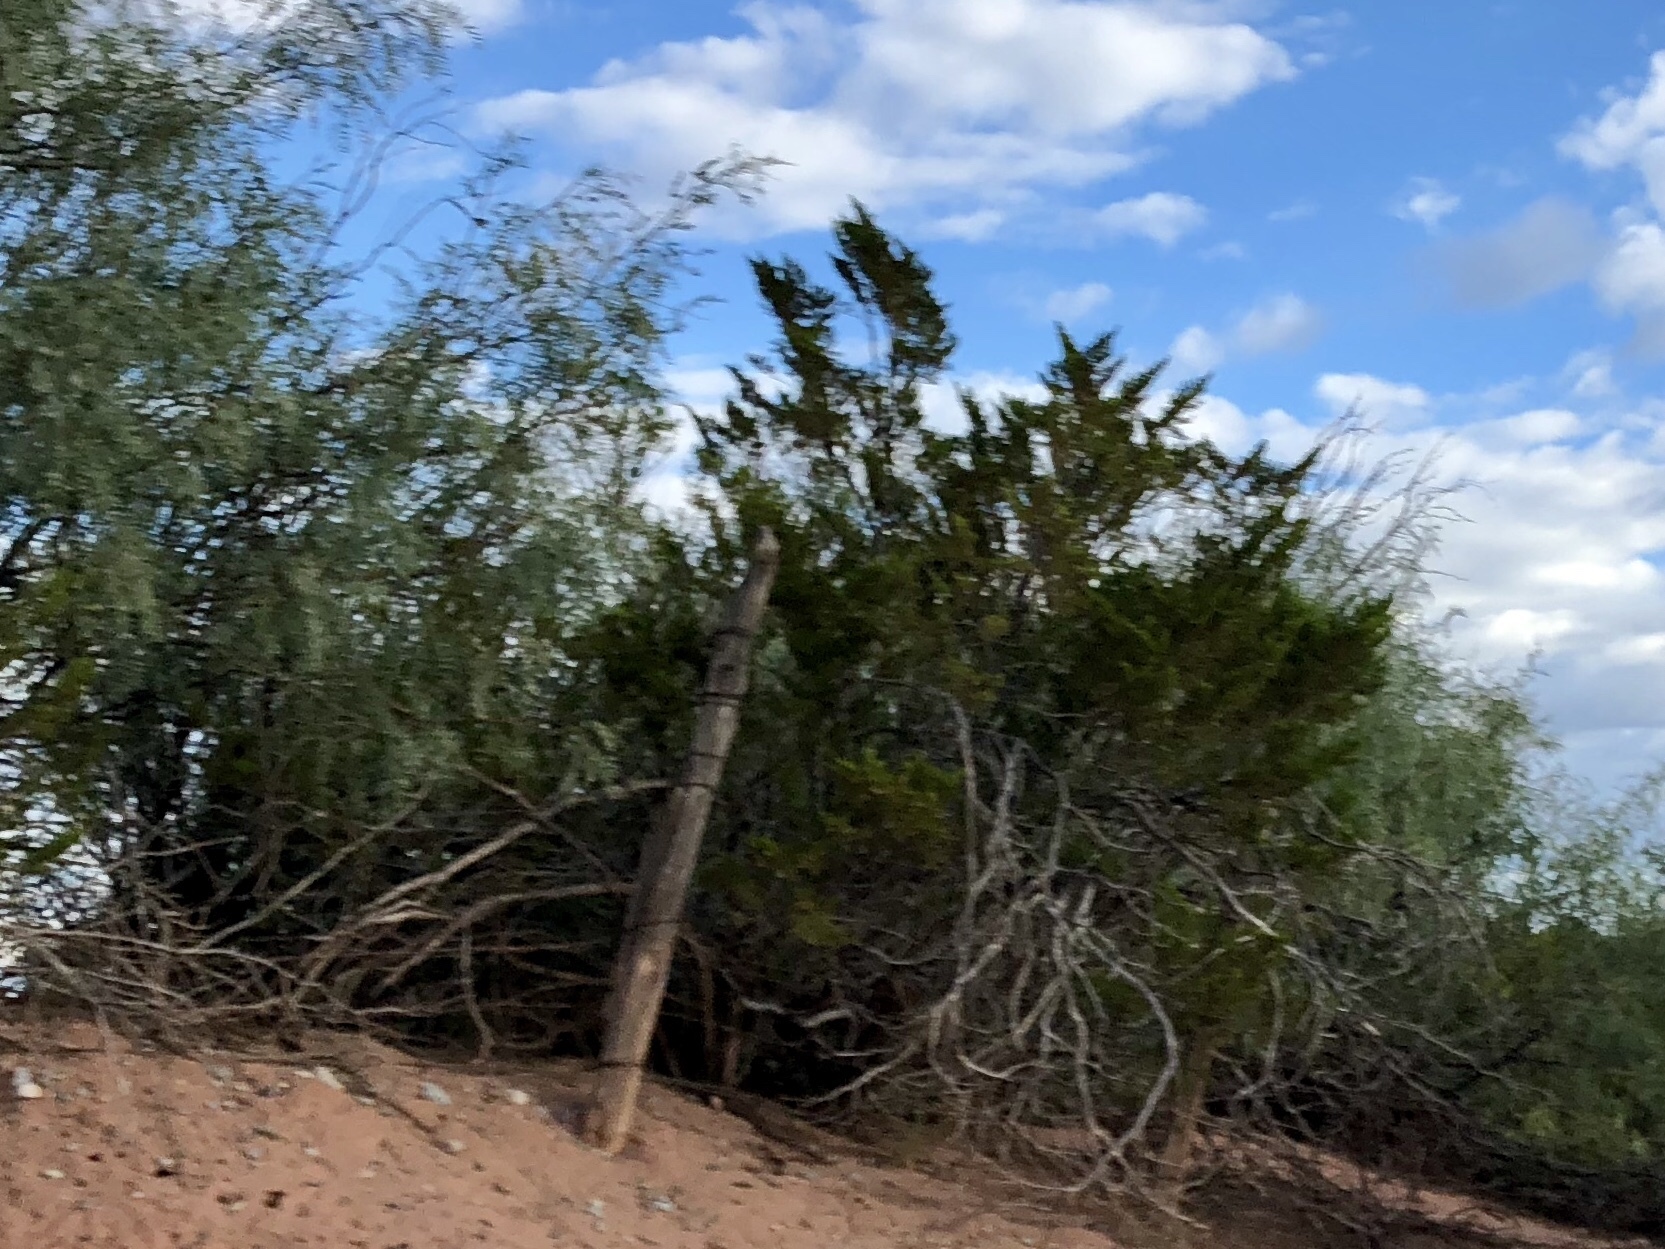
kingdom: Plantae
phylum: Tracheophyta
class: Magnoliopsida
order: Zygophyllales
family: Zygophyllaceae
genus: Larrea
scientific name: Larrea tridentata
